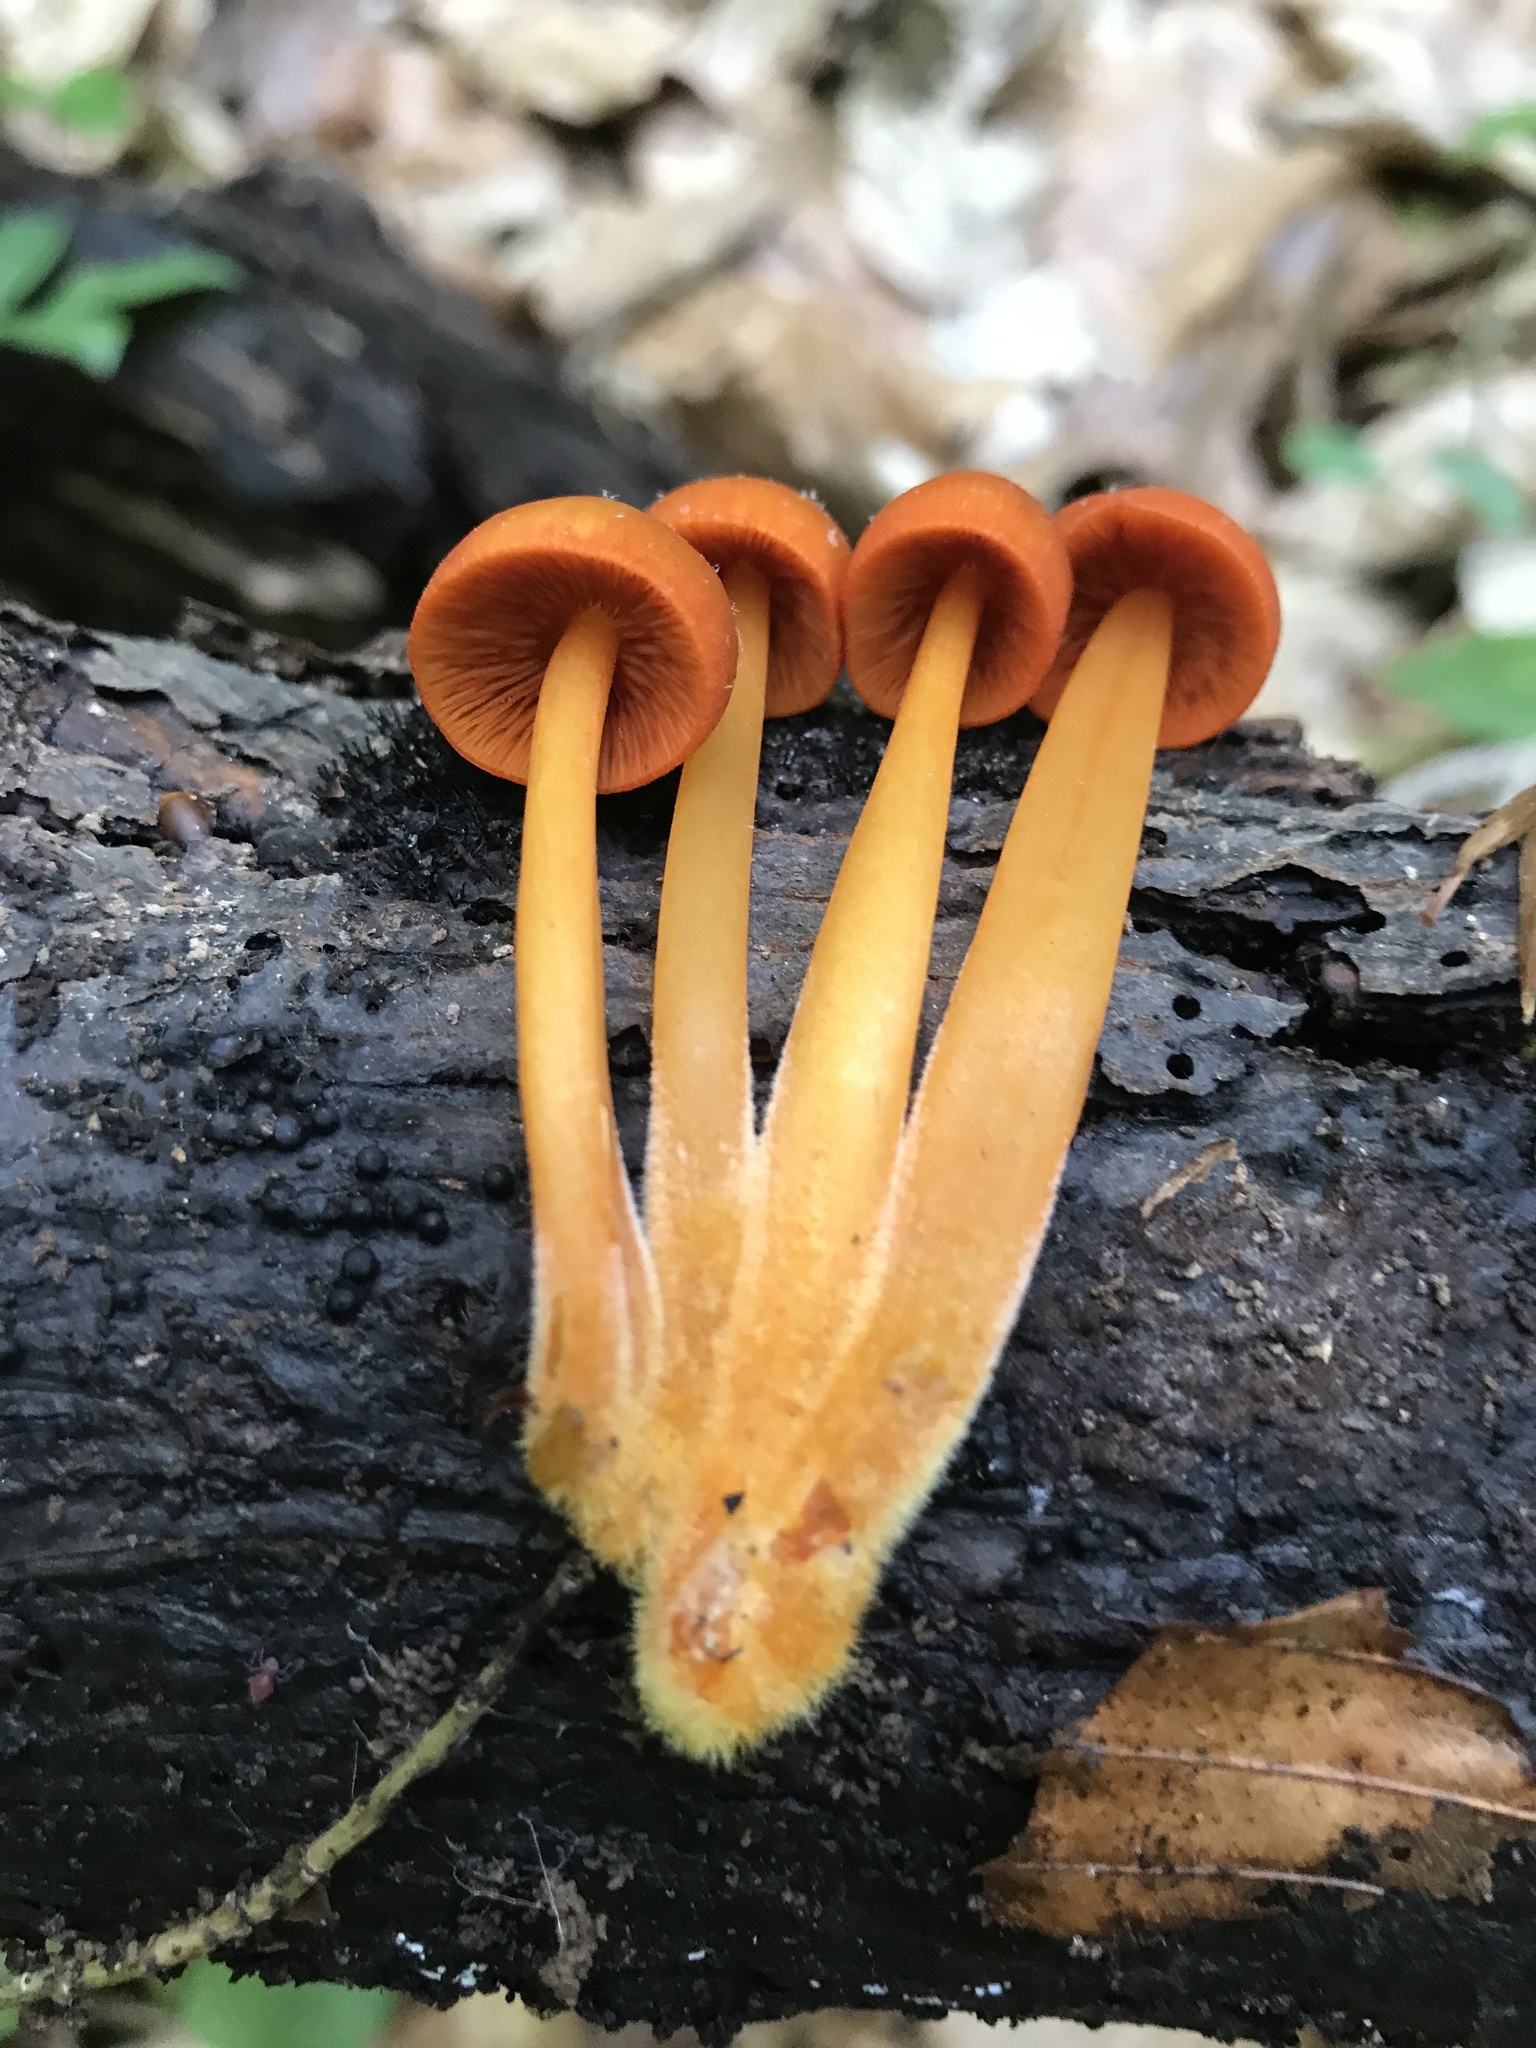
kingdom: Fungi
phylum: Basidiomycota
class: Agaricomycetes
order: Agaricales
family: Mycenaceae
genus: Mycena
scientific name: Mycena leaiana
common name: Orange mycena
